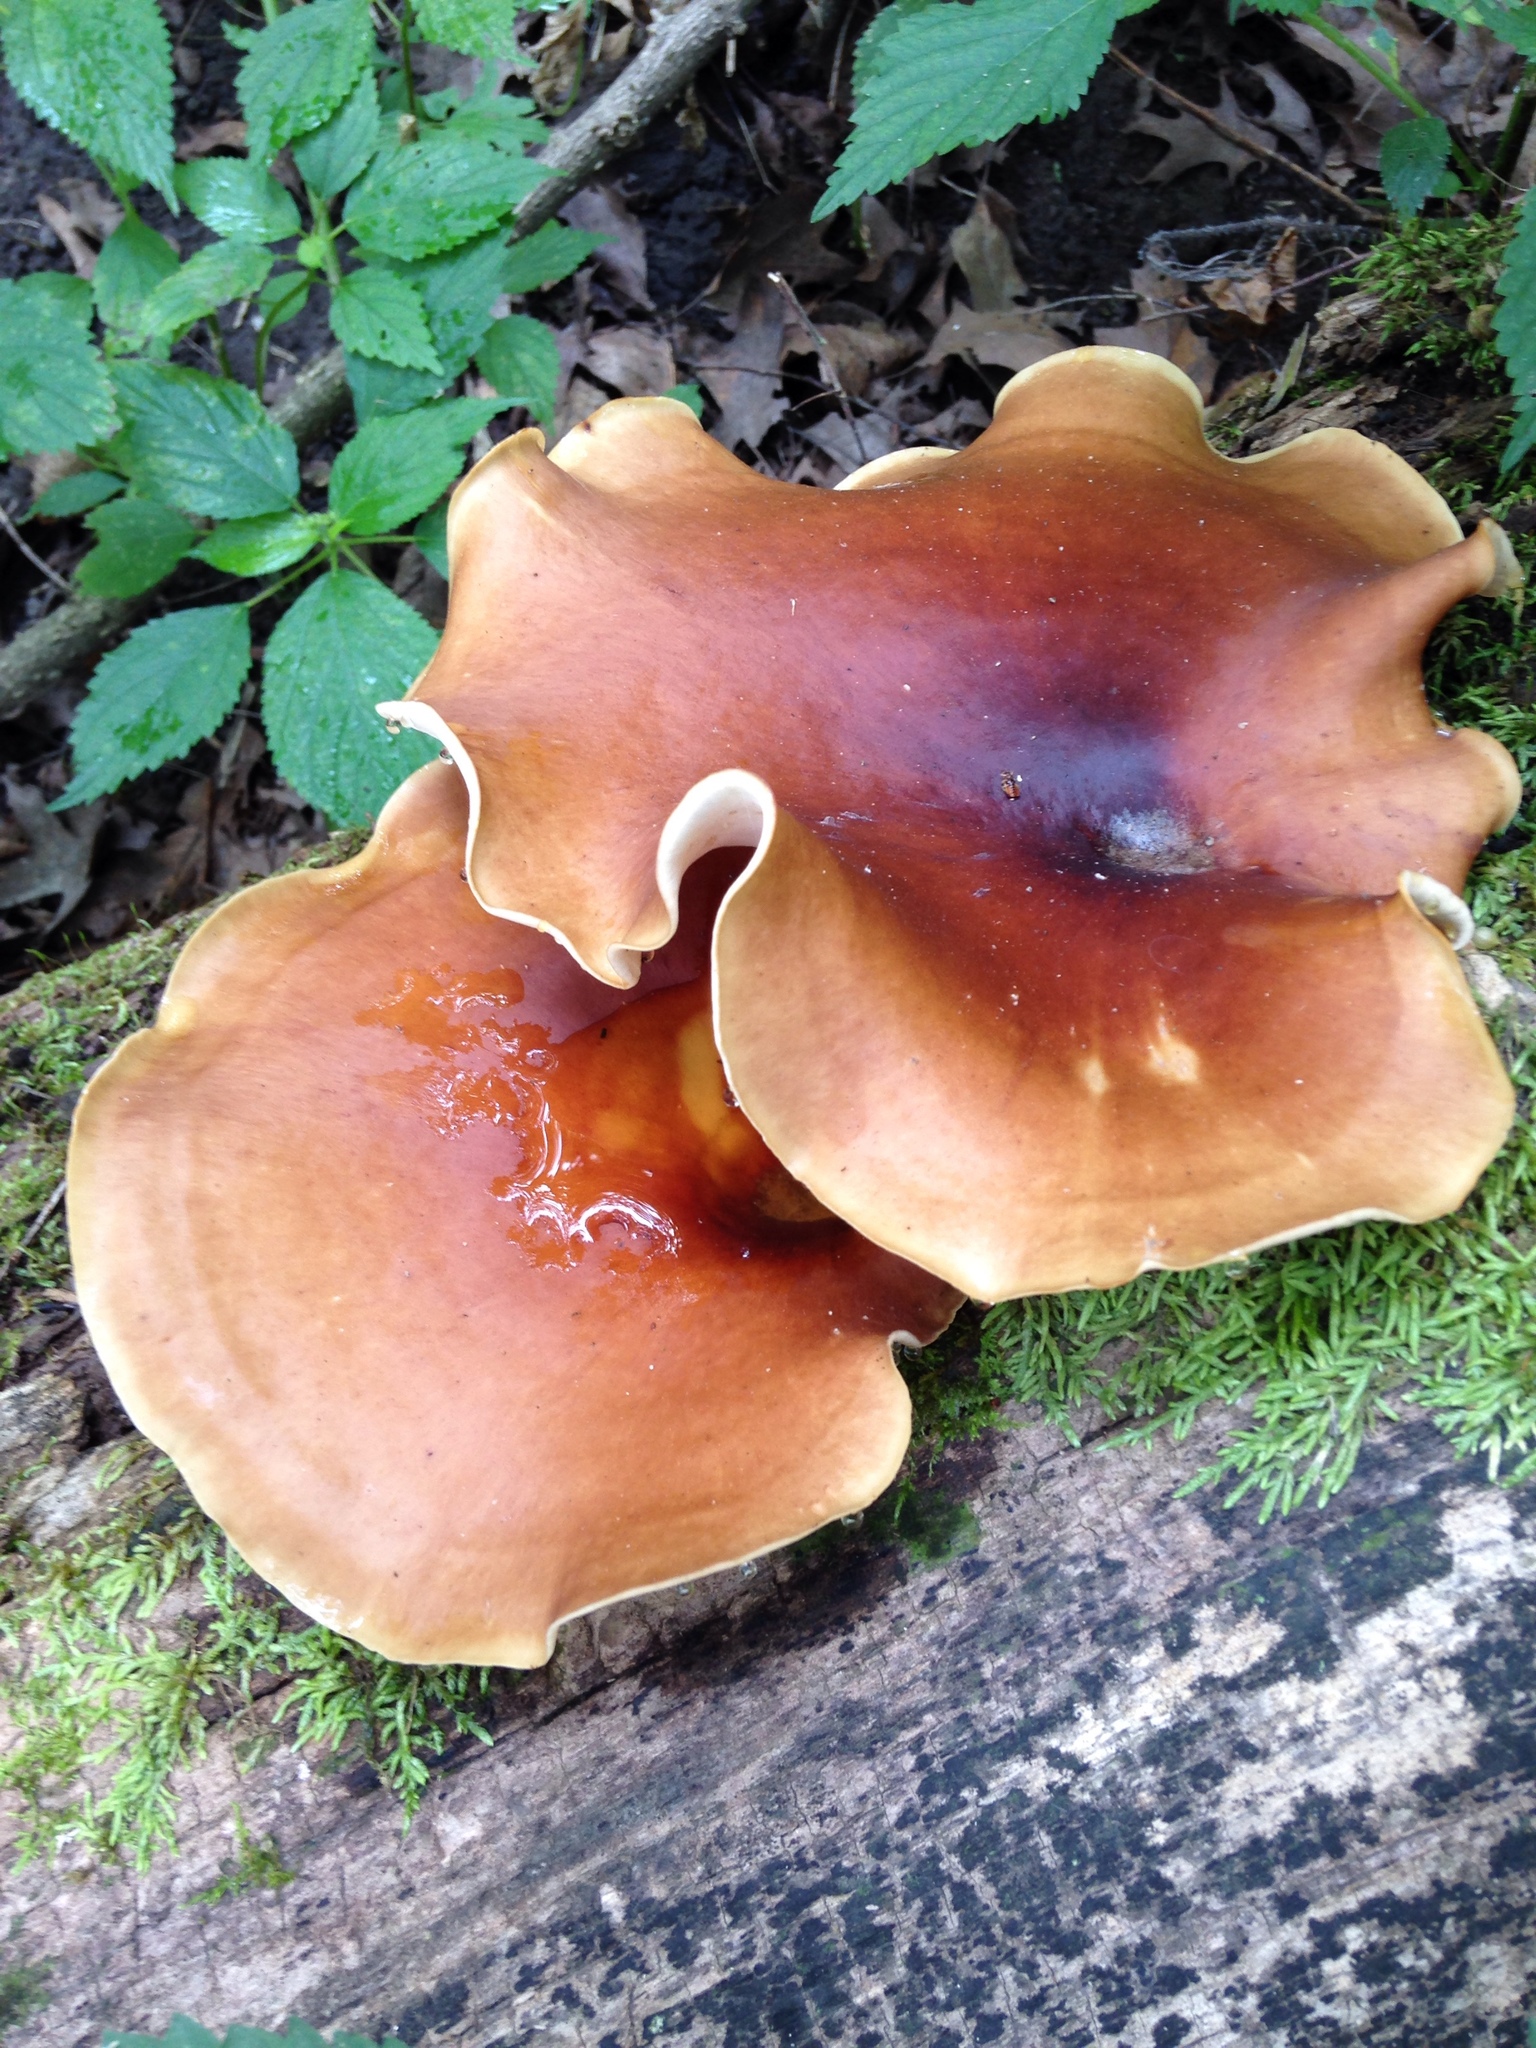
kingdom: Fungi
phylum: Basidiomycota
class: Agaricomycetes
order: Polyporales
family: Polyporaceae
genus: Picipes
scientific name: Picipes badius
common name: Bay polypore
